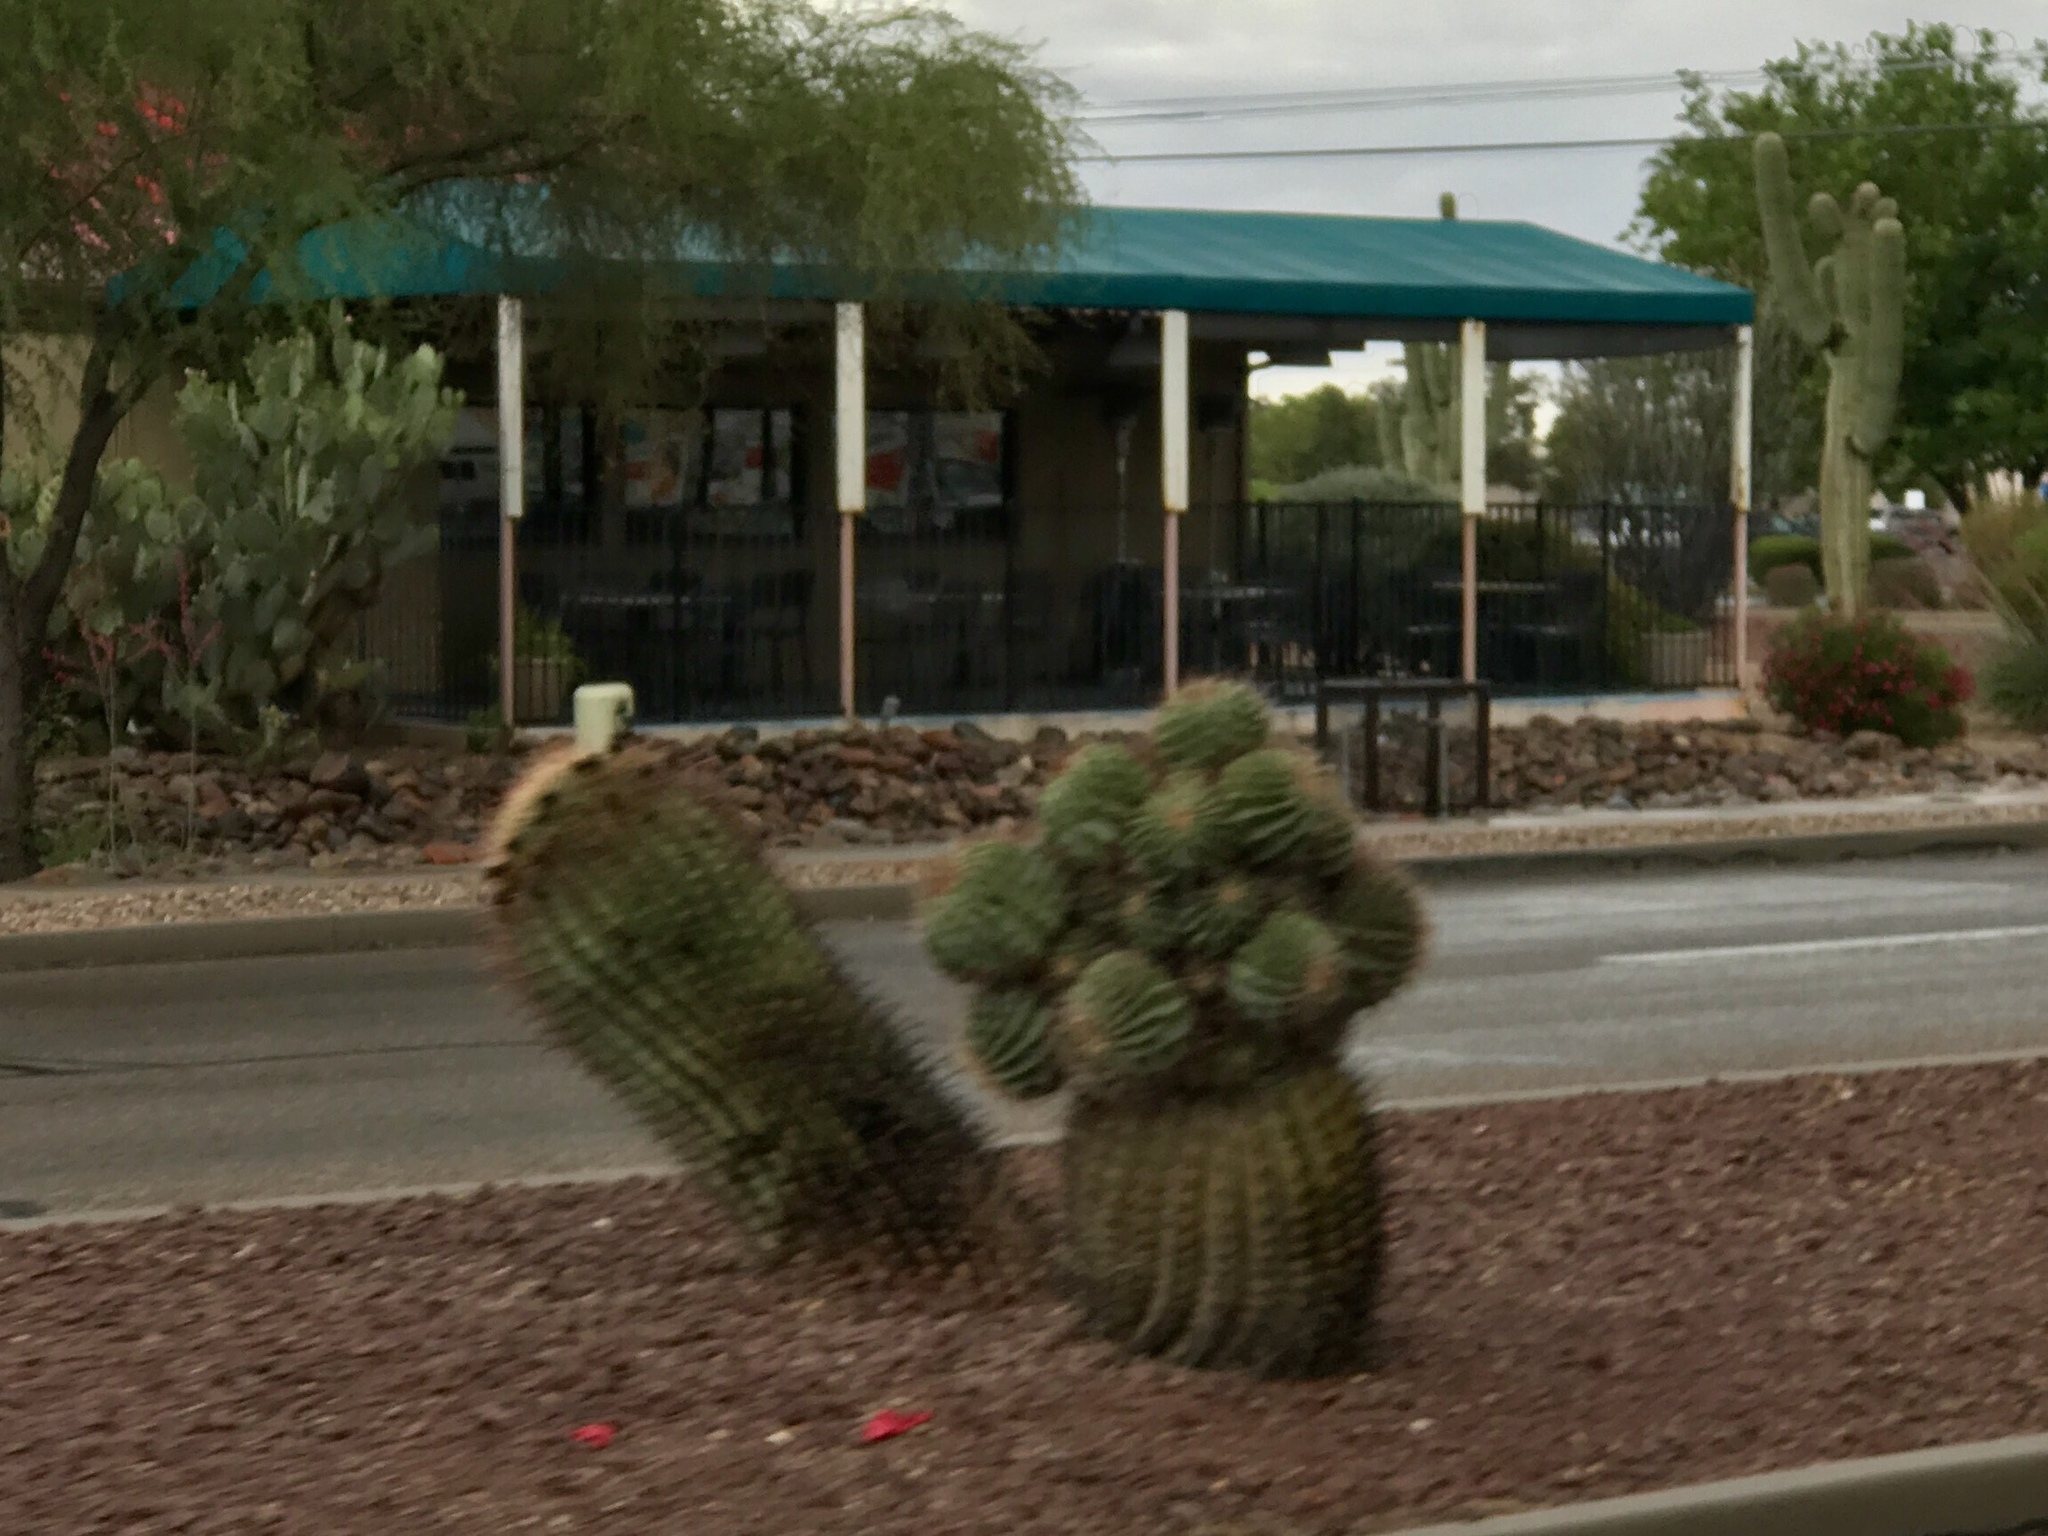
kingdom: Plantae
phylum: Tracheophyta
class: Magnoliopsida
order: Caryophyllales
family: Cactaceae
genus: Ferocactus
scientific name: Ferocactus wislizeni
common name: Candy barrel cactus
